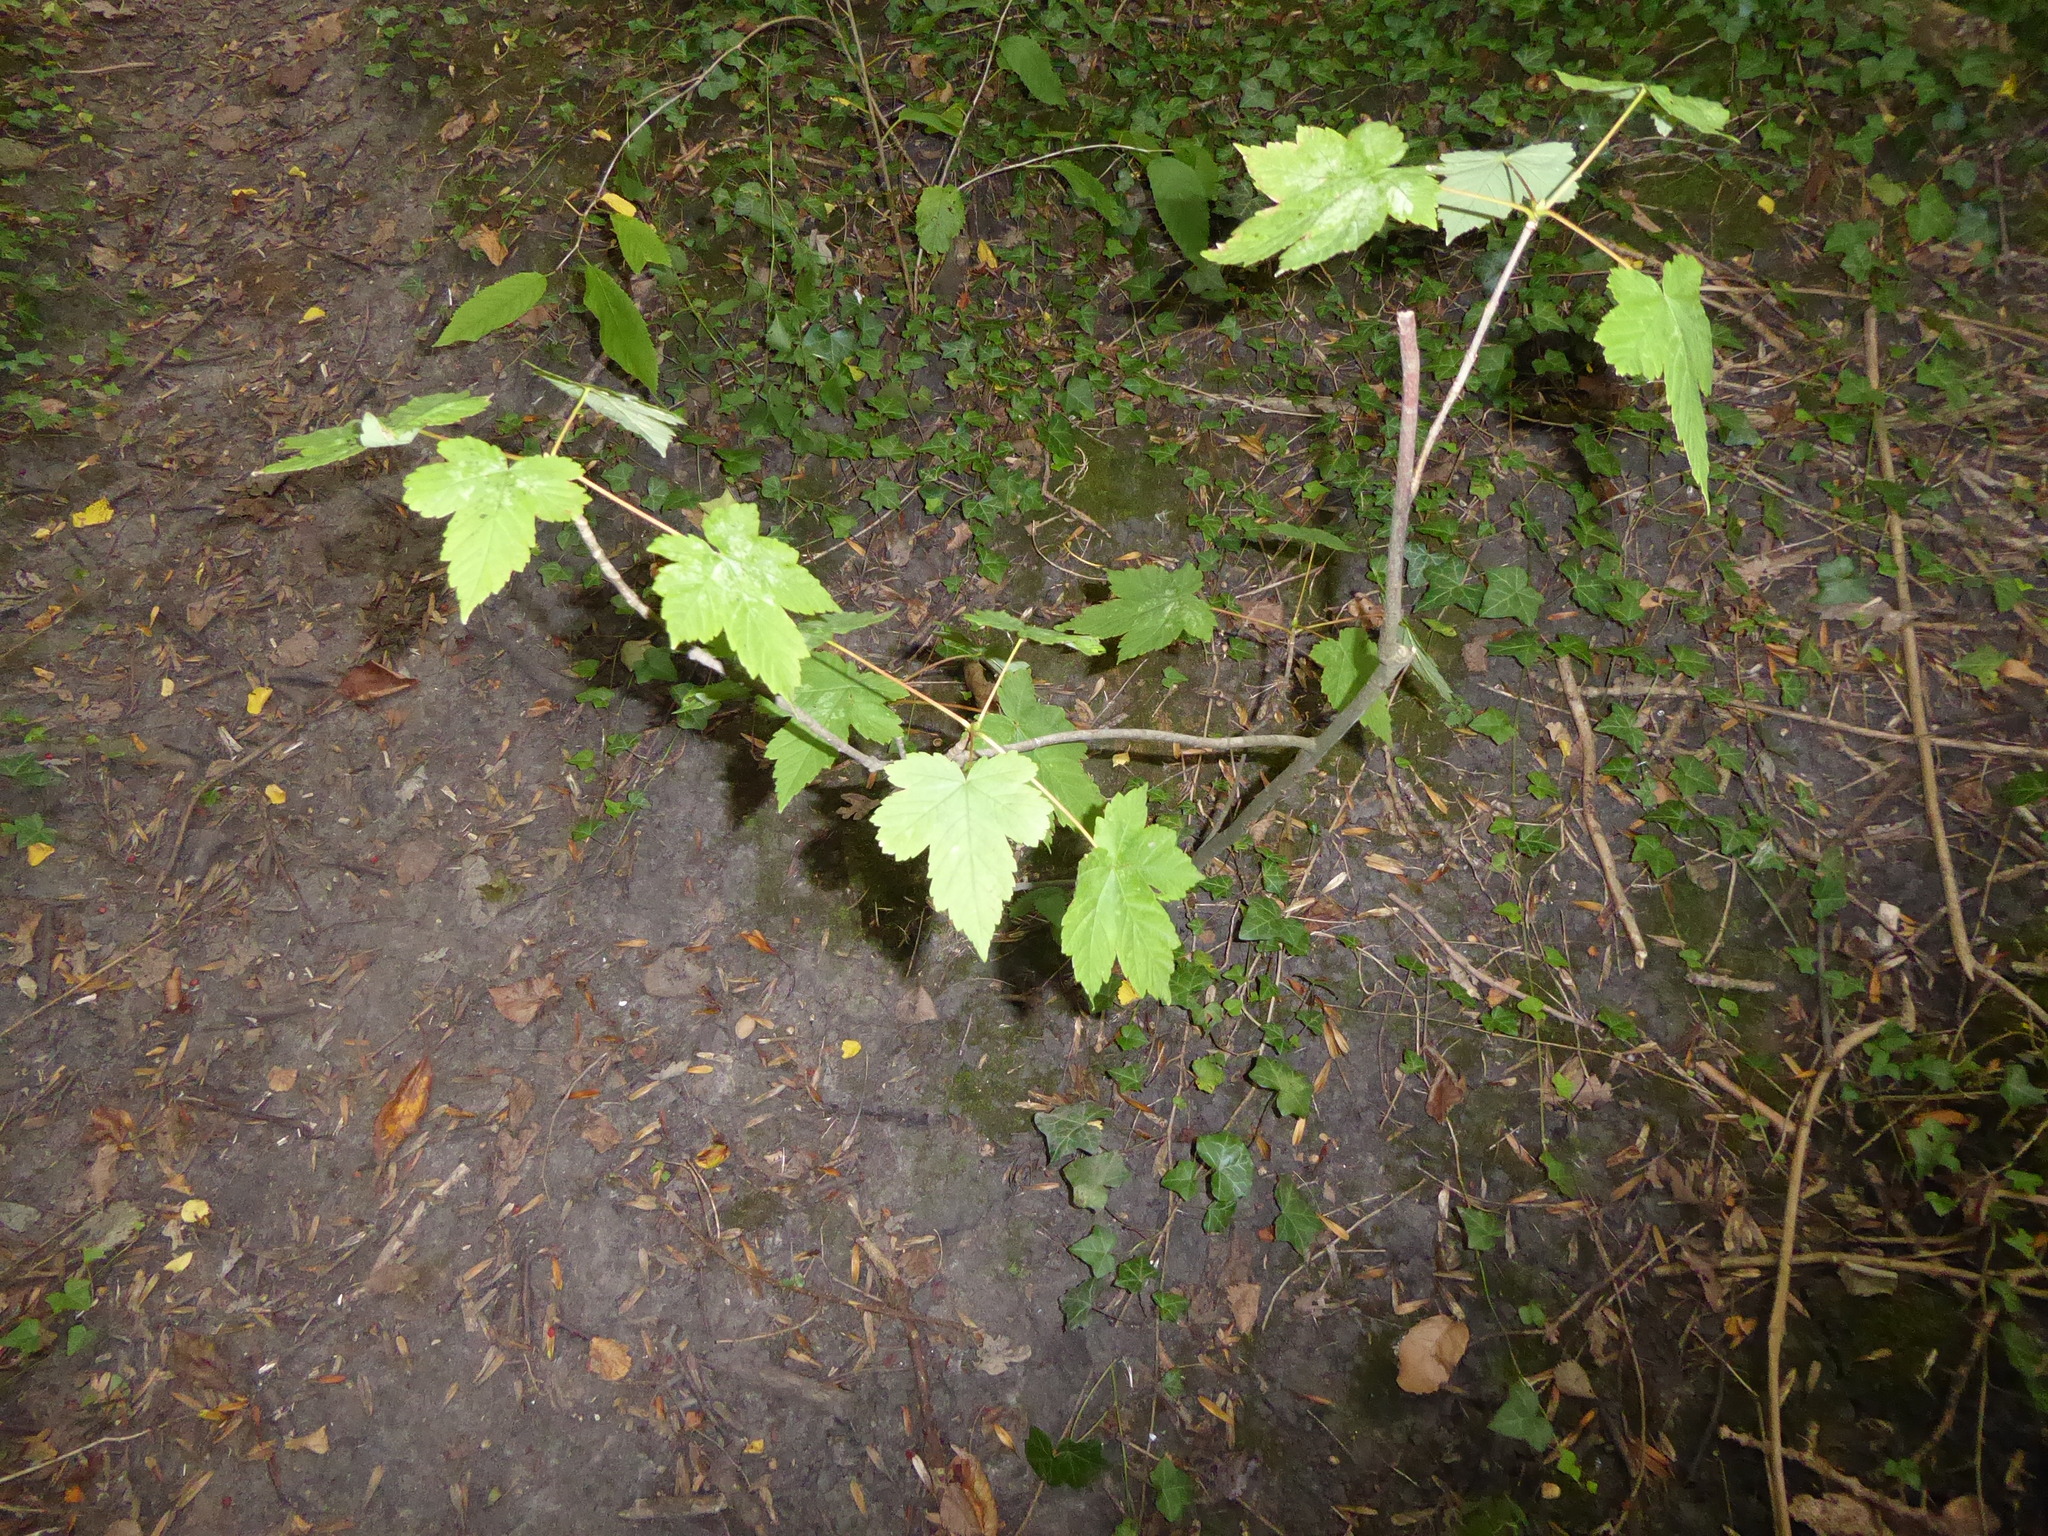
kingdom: Plantae
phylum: Tracheophyta
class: Magnoliopsida
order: Sapindales
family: Sapindaceae
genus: Acer
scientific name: Acer pseudoplatanus
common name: Sycamore
